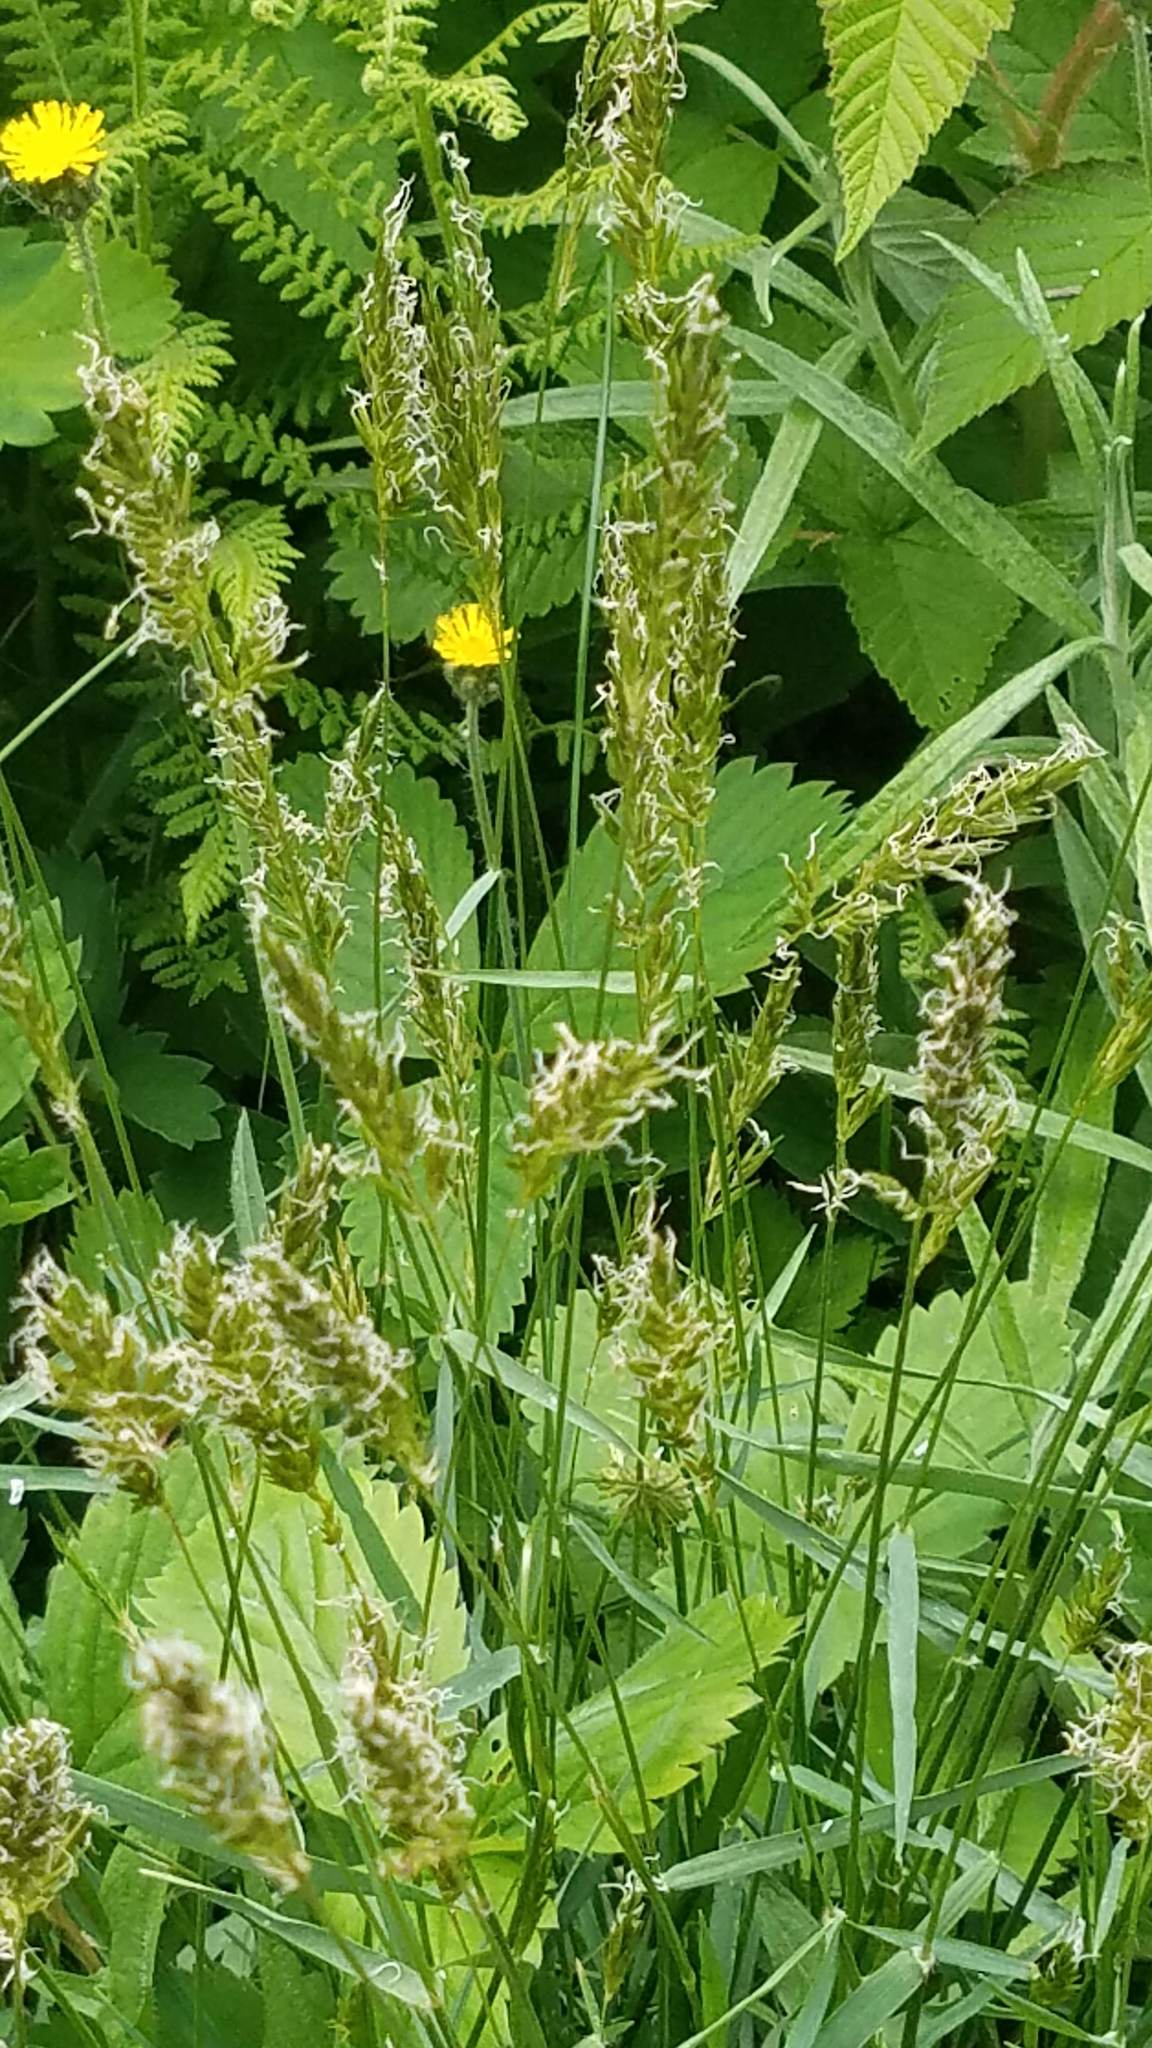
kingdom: Plantae
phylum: Tracheophyta
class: Liliopsida
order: Poales
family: Poaceae
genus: Anthoxanthum
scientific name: Anthoxanthum odoratum
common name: Sweet vernalgrass
